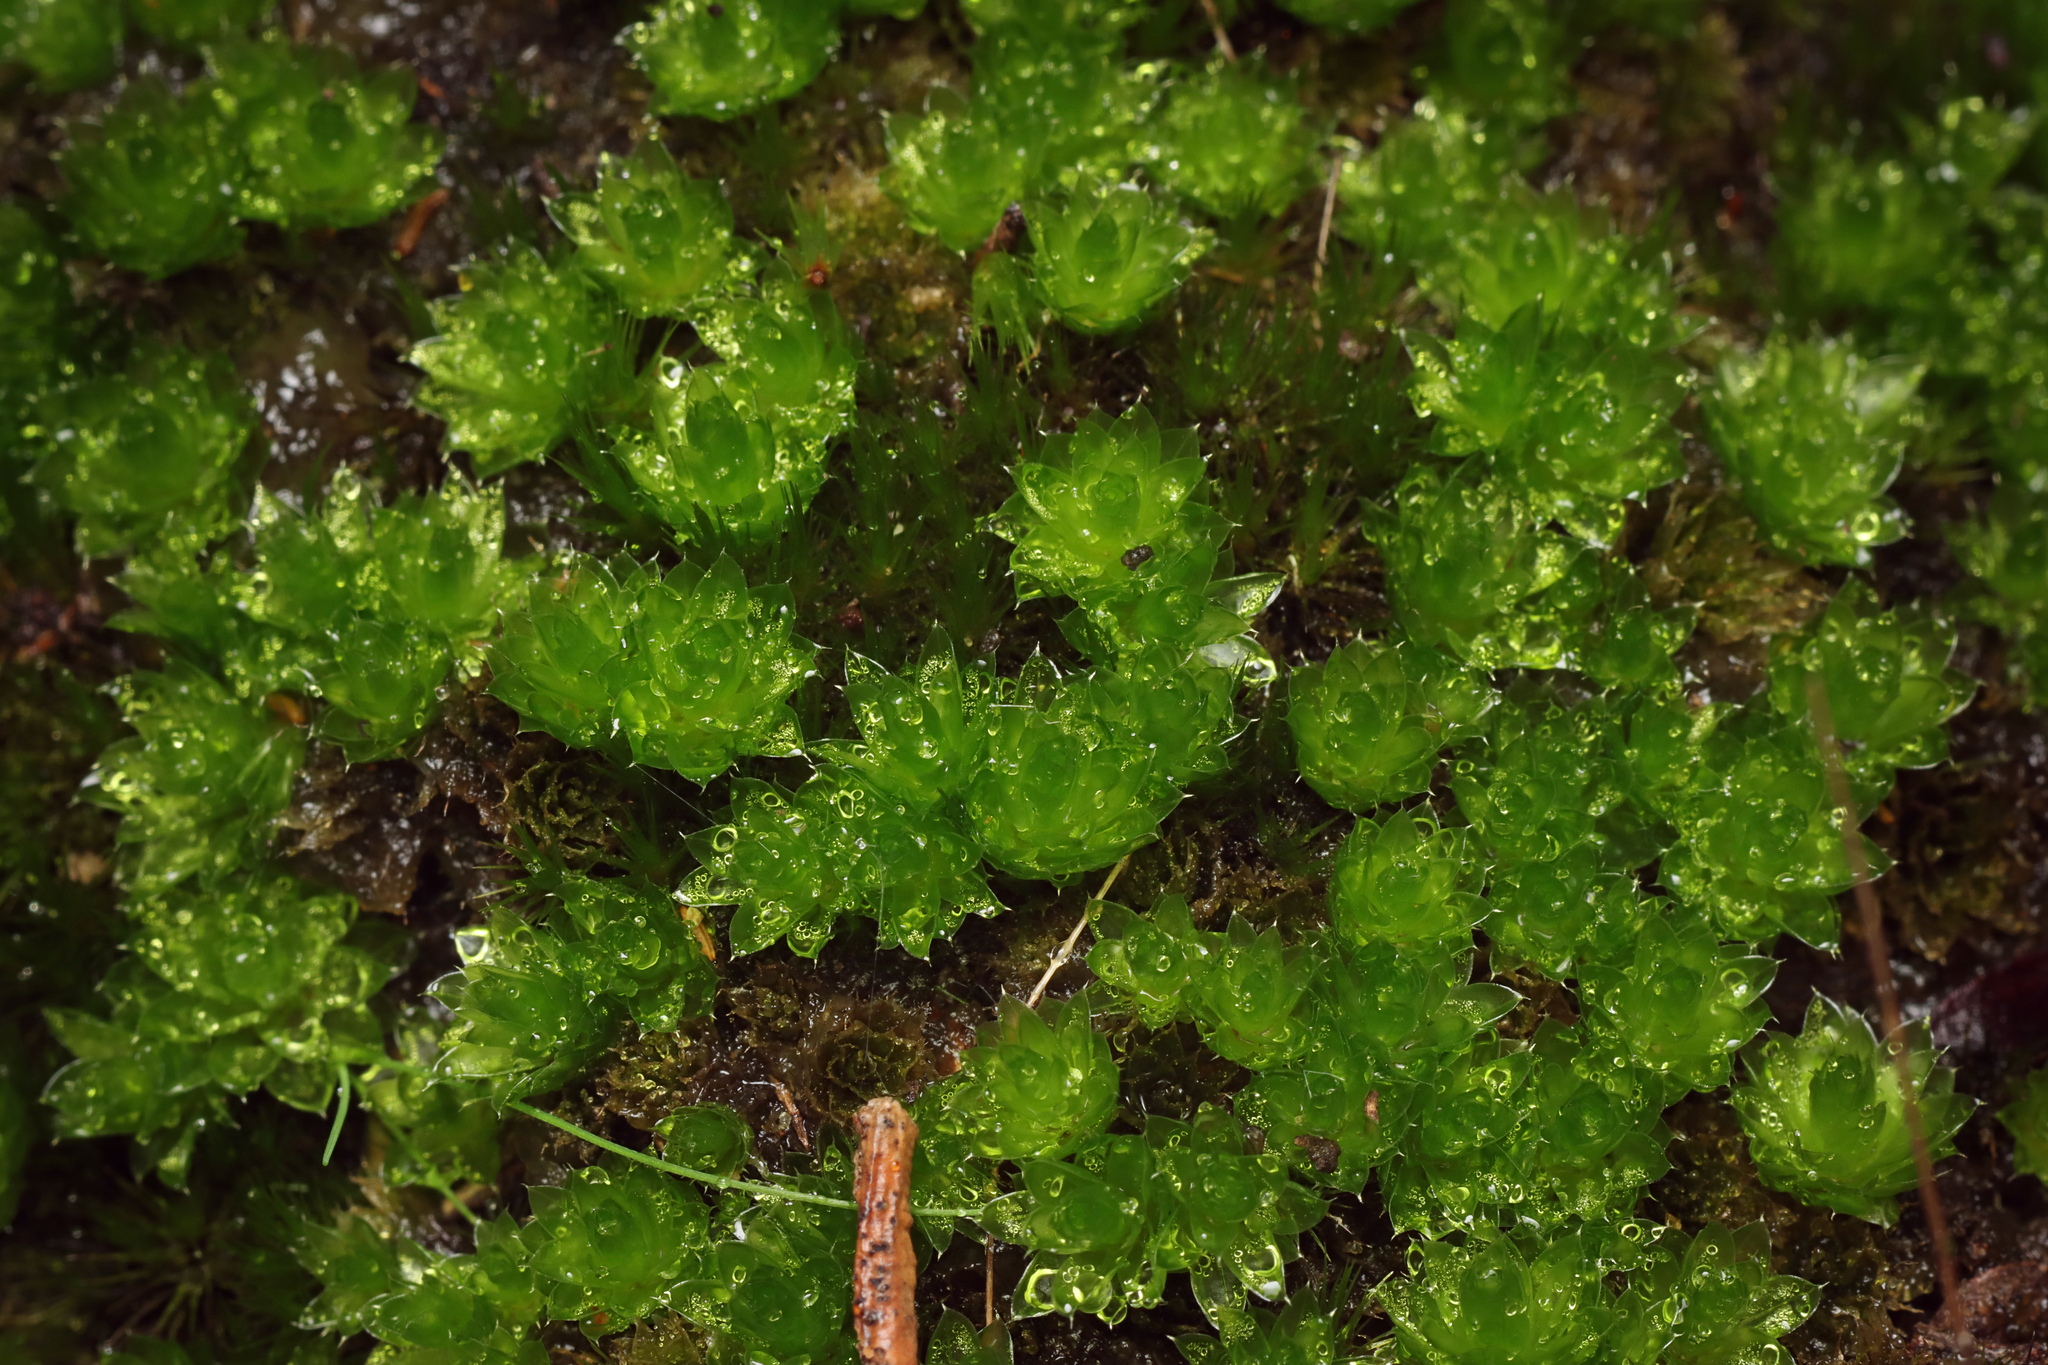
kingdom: Plantae
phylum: Bryophyta
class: Bryopsida
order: Bryales
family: Bryaceae
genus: Rosulabryum
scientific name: Rosulabryum billardierei
